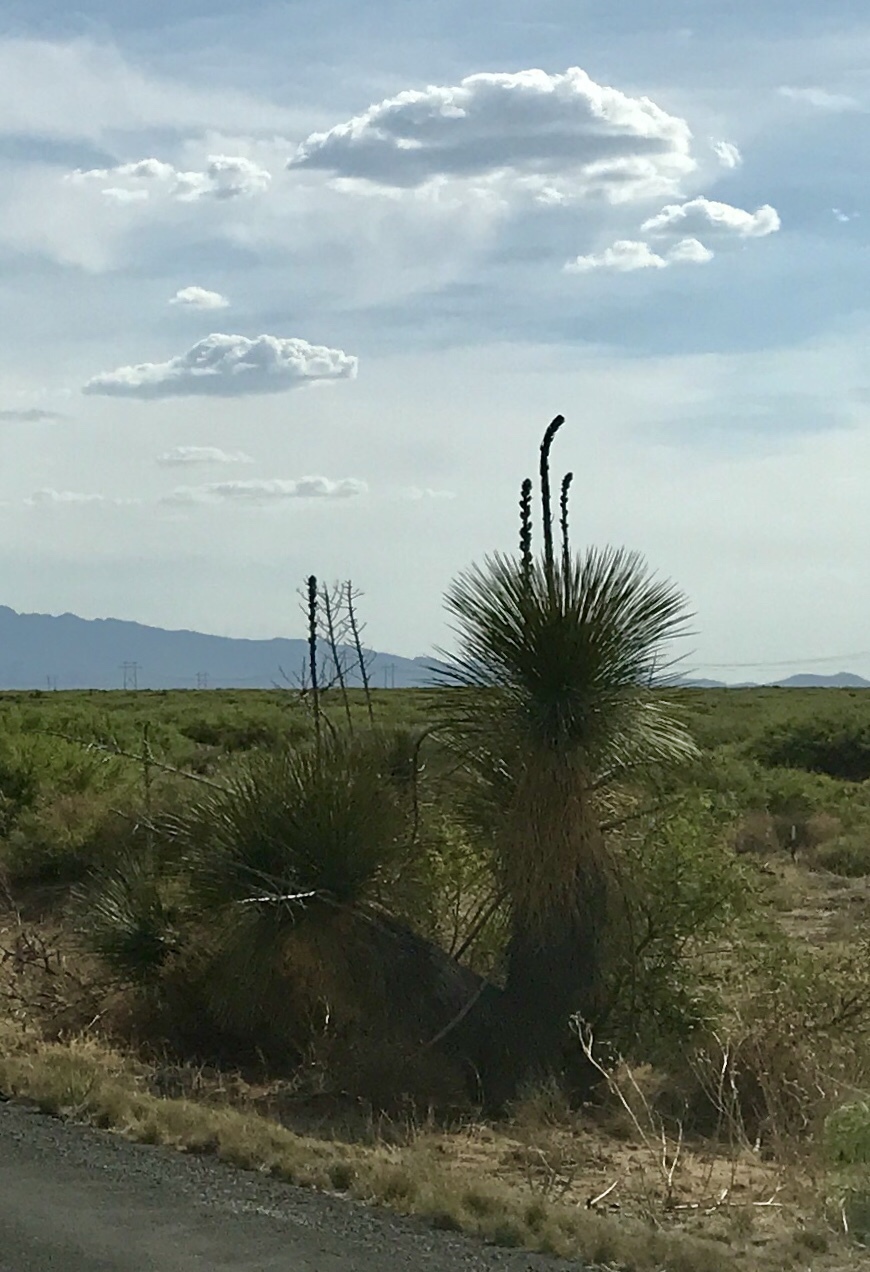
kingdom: Plantae
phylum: Tracheophyta
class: Liliopsida
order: Asparagales
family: Asparagaceae
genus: Yucca
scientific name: Yucca elata
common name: Palmella
